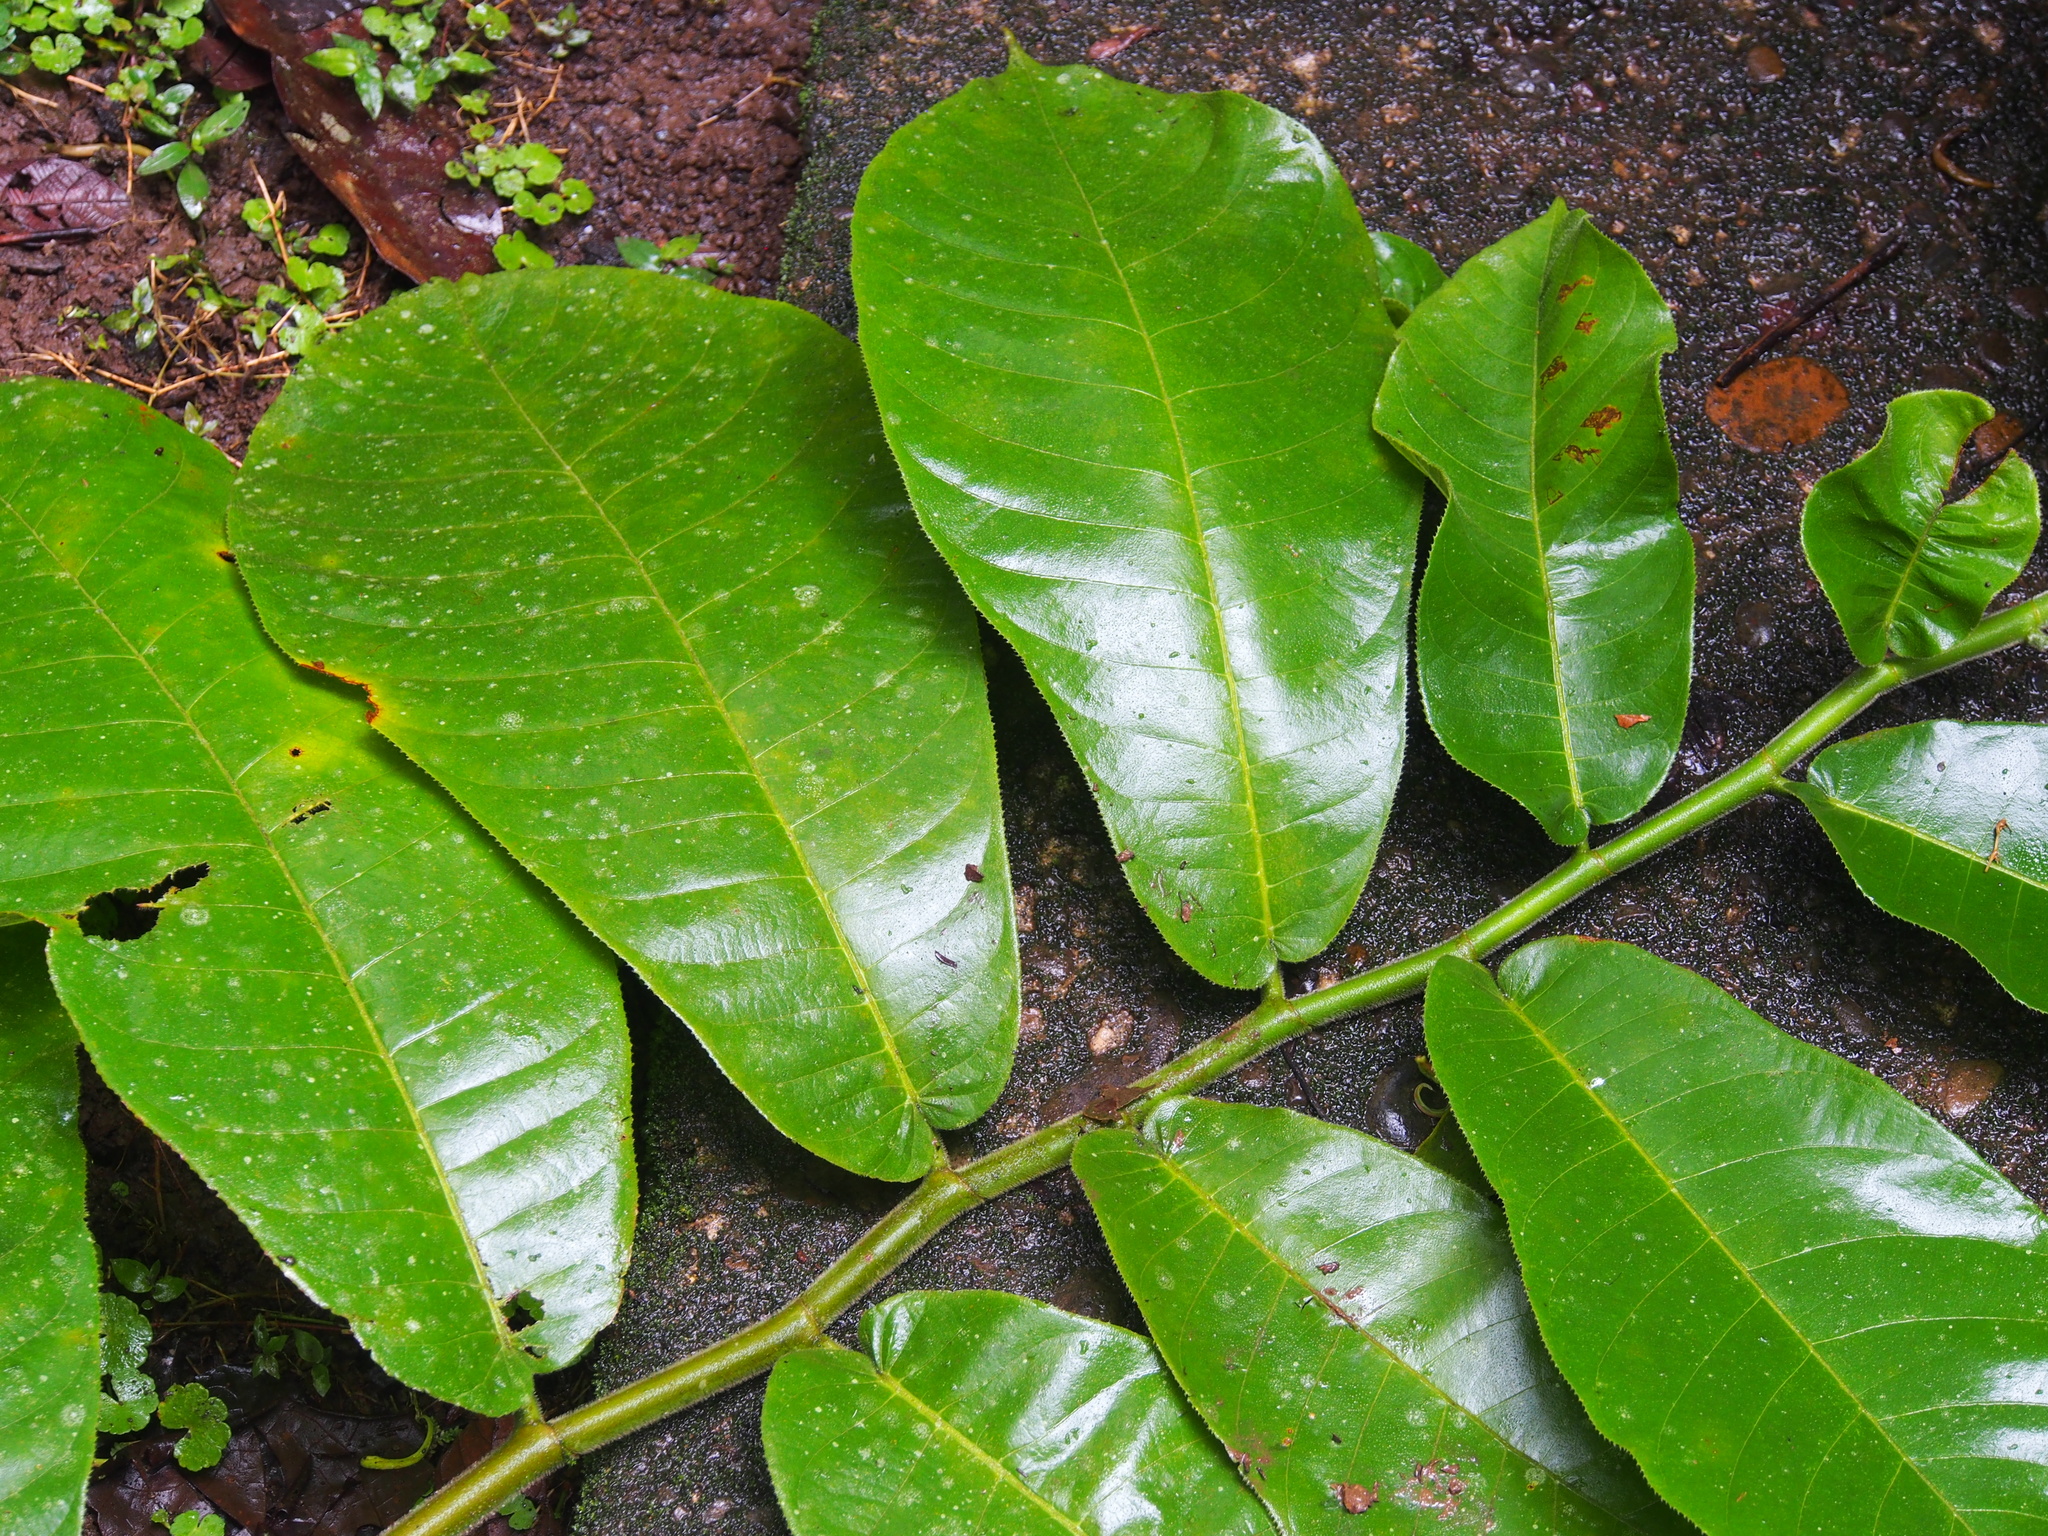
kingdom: Plantae
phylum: Tracheophyta
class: Magnoliopsida
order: Rosales
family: Moraceae
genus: Castilla
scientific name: Castilla elastica
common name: Castilla rubber
